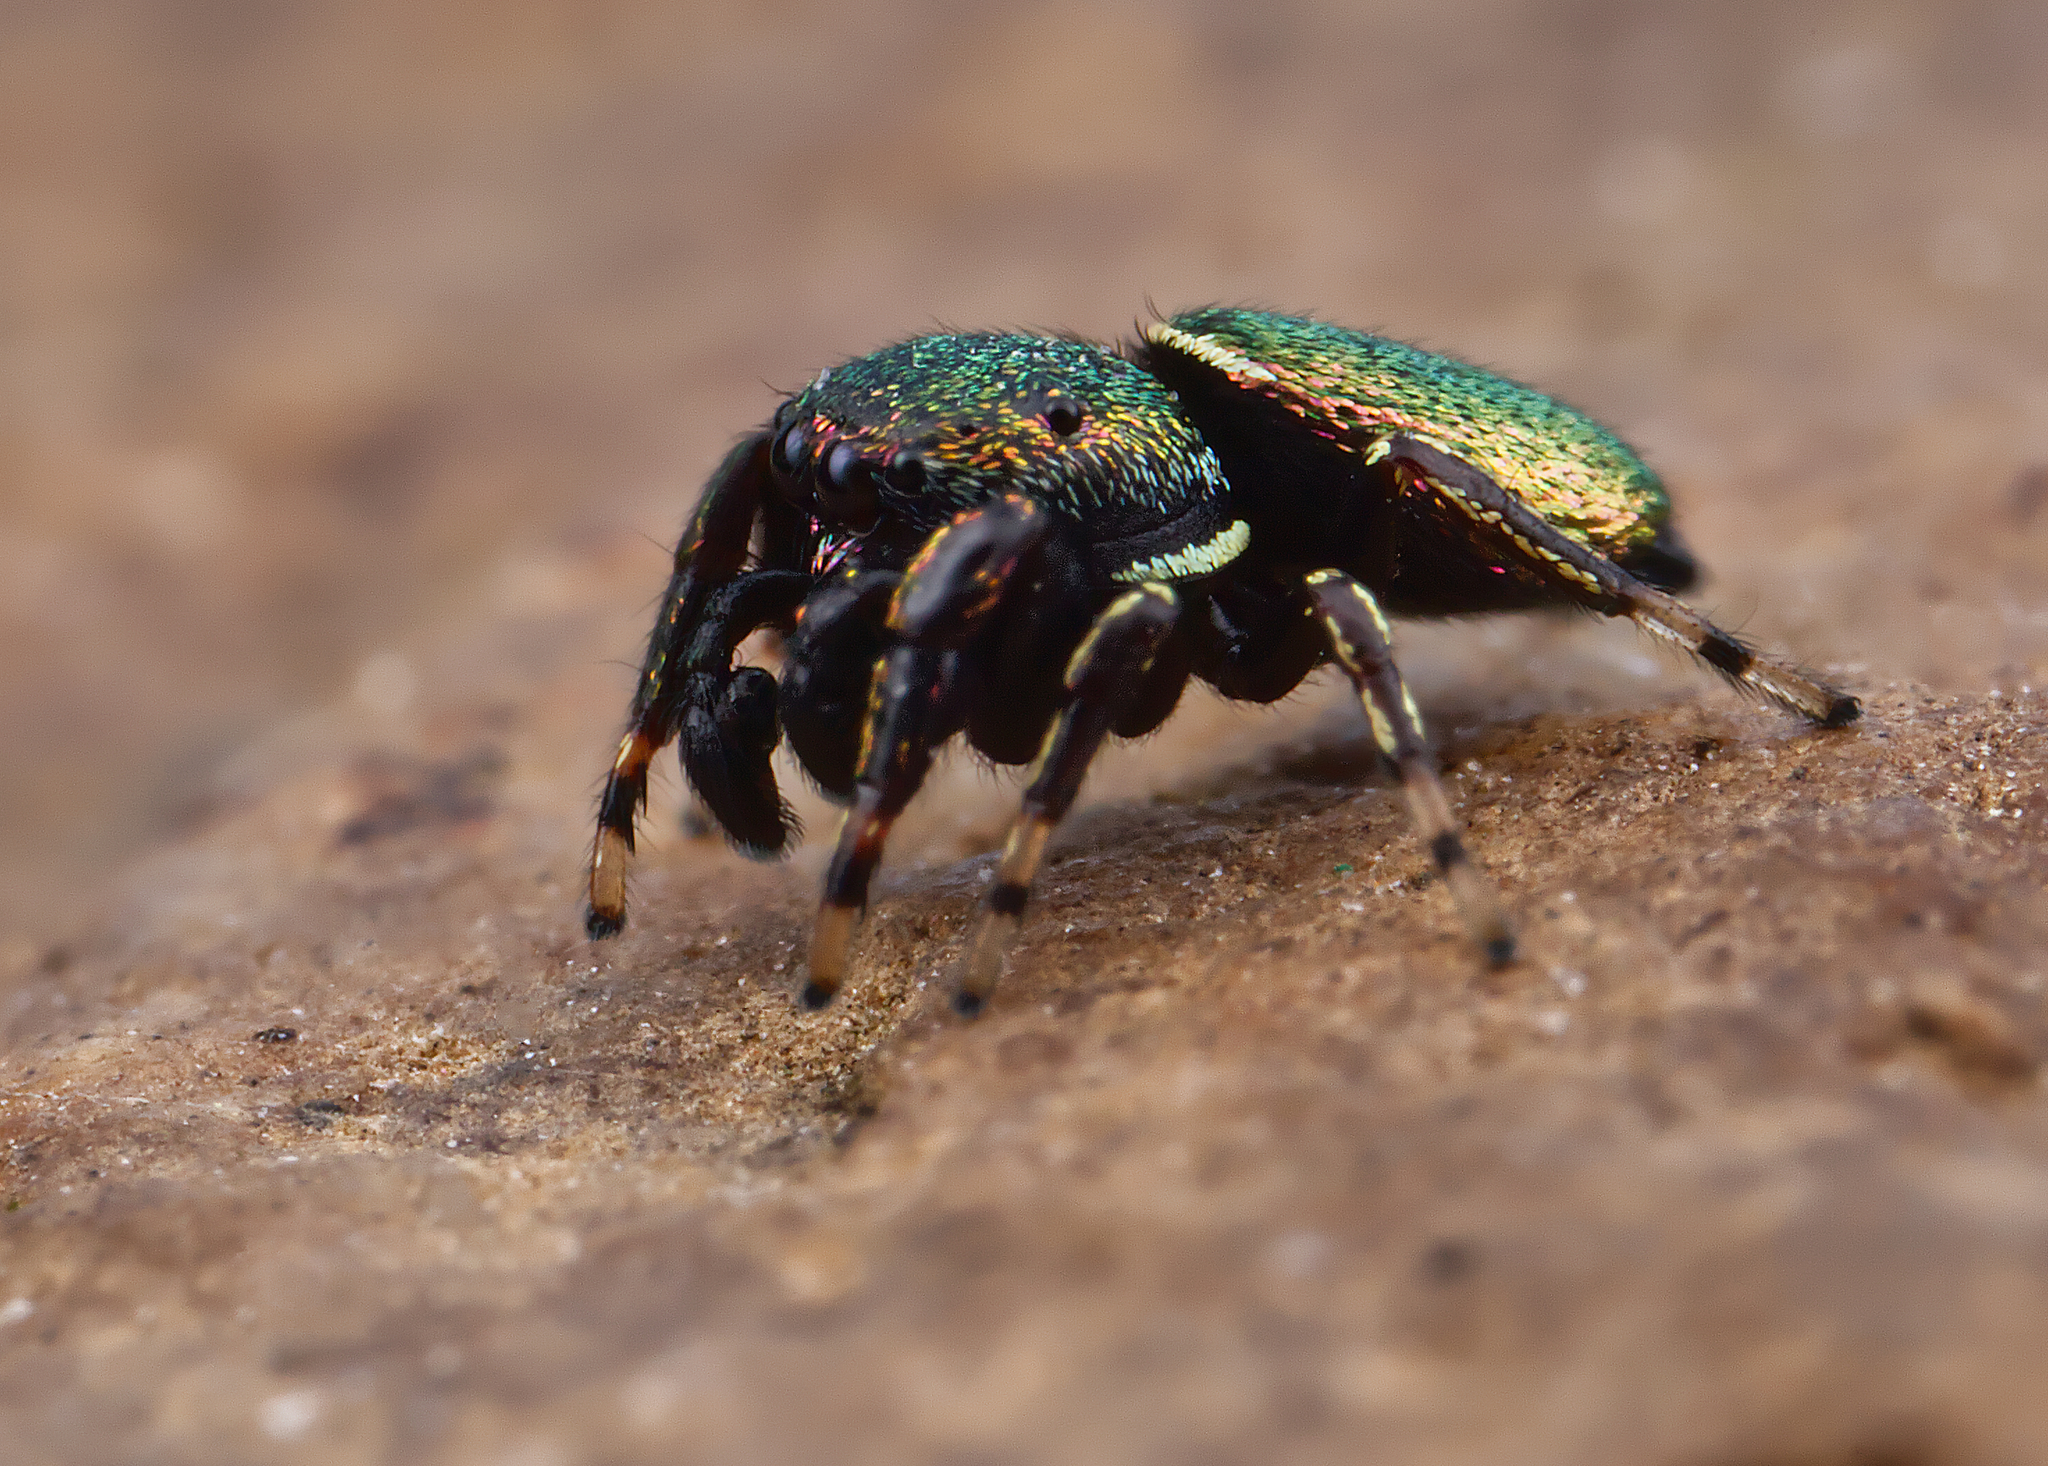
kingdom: Animalia
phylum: Arthropoda
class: Arachnida
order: Araneae
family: Salticidae
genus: Sassacus
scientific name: Sassacus papenhoei
